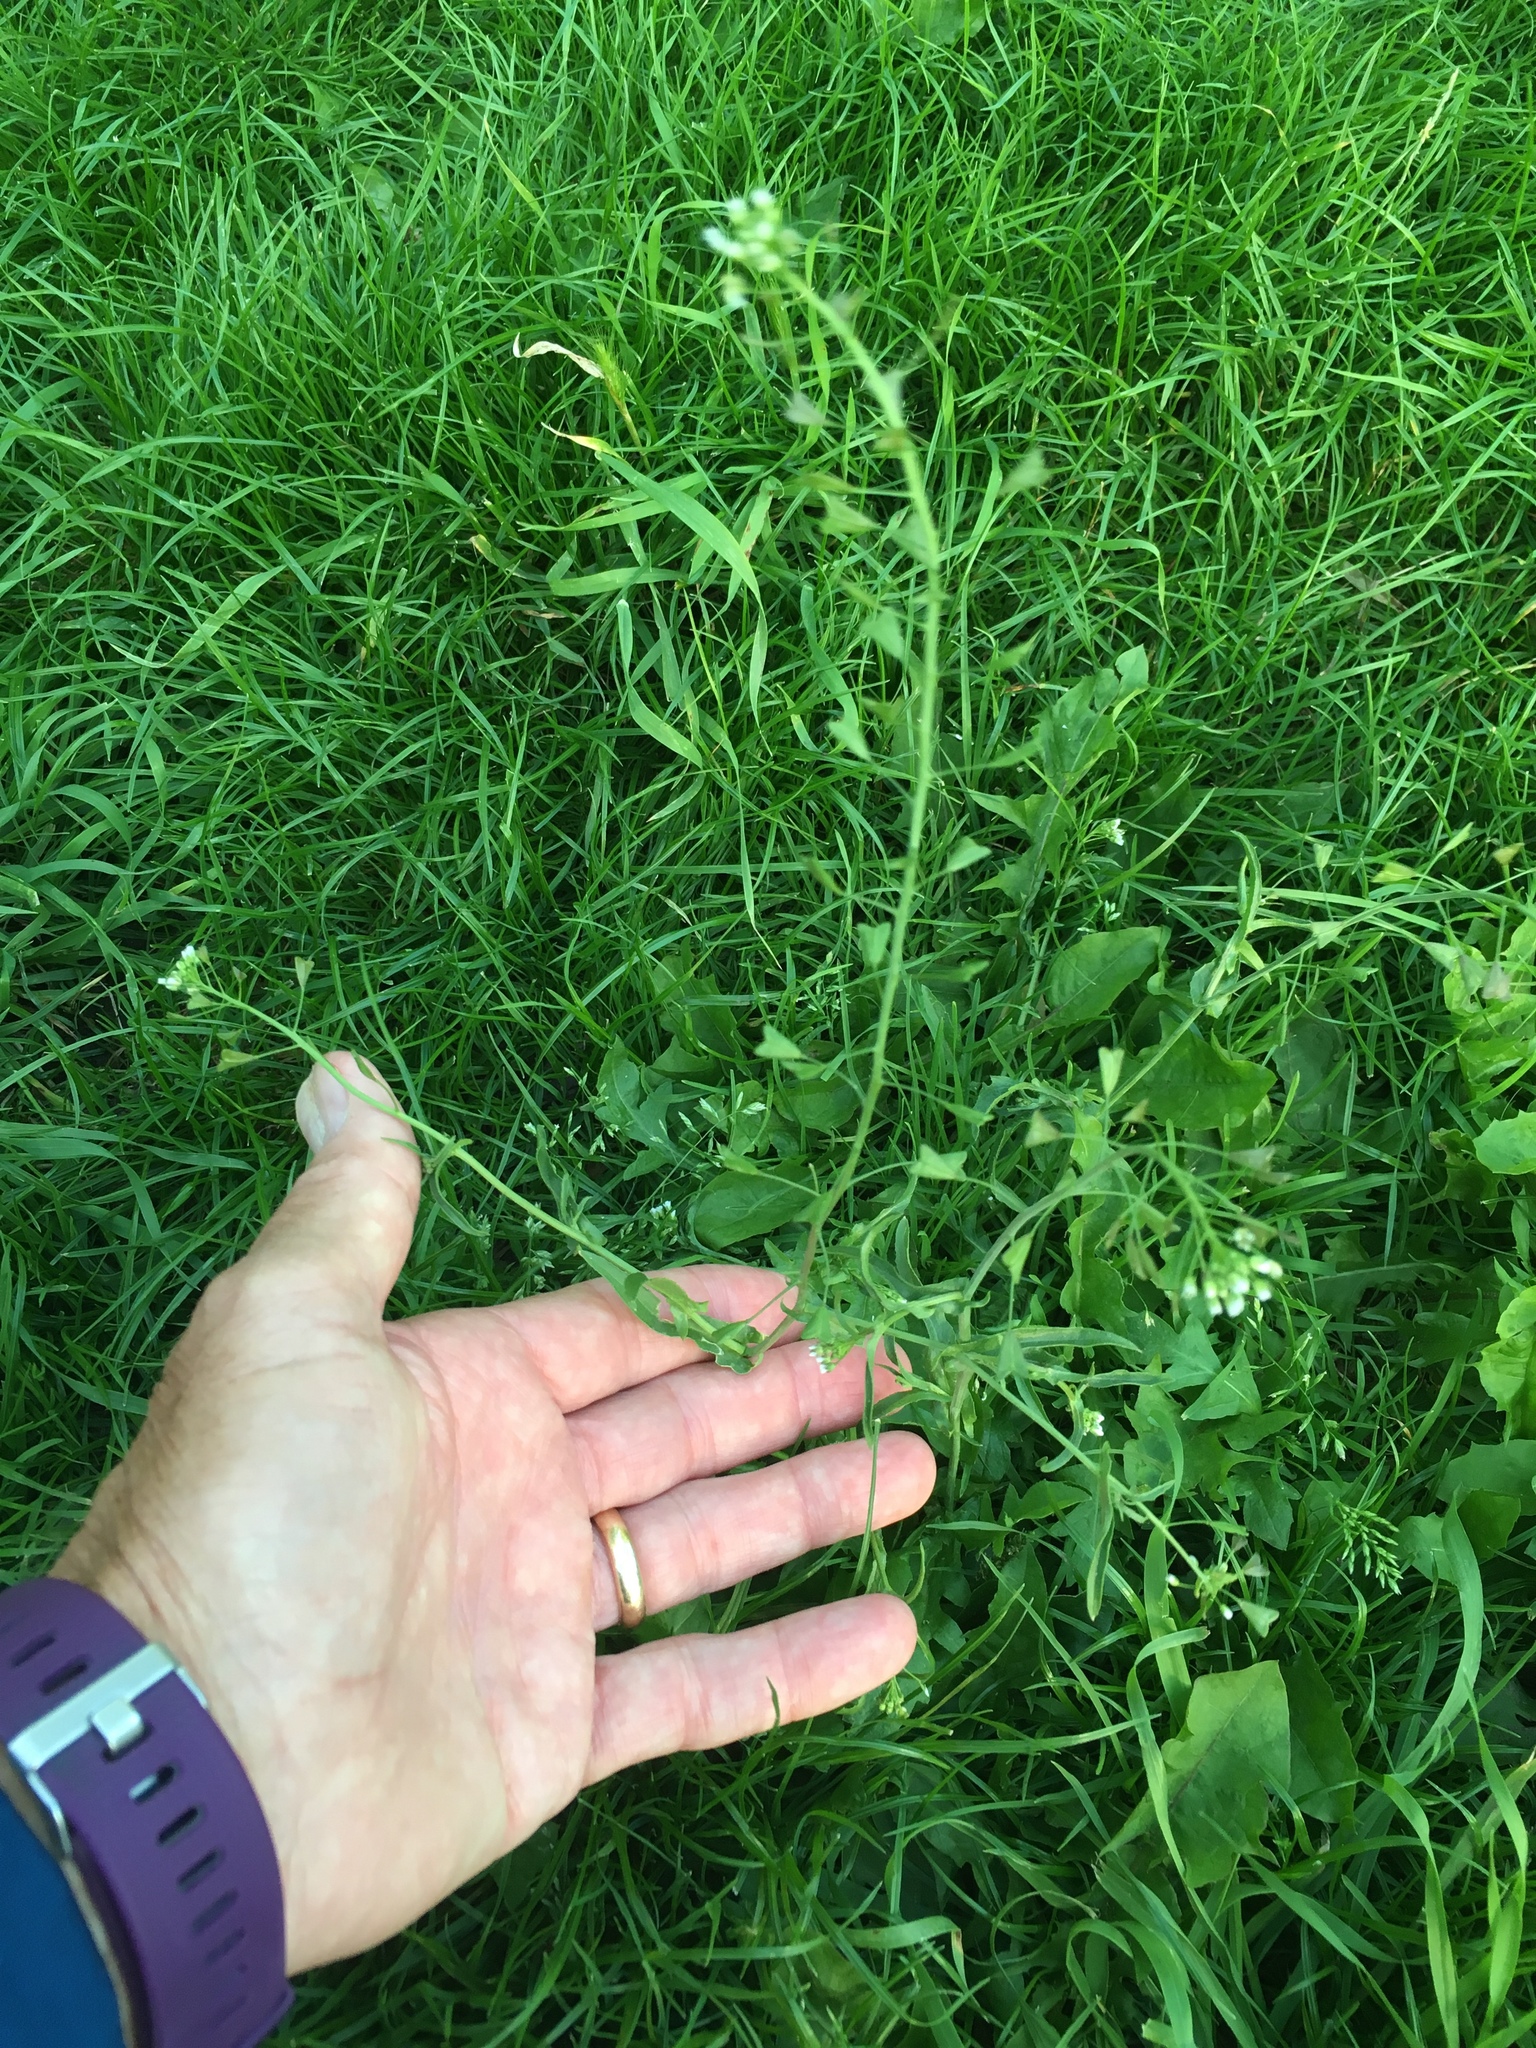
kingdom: Plantae
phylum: Tracheophyta
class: Magnoliopsida
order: Brassicales
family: Brassicaceae
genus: Capsella
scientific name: Capsella bursa-pastoris
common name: Shepherd's purse
